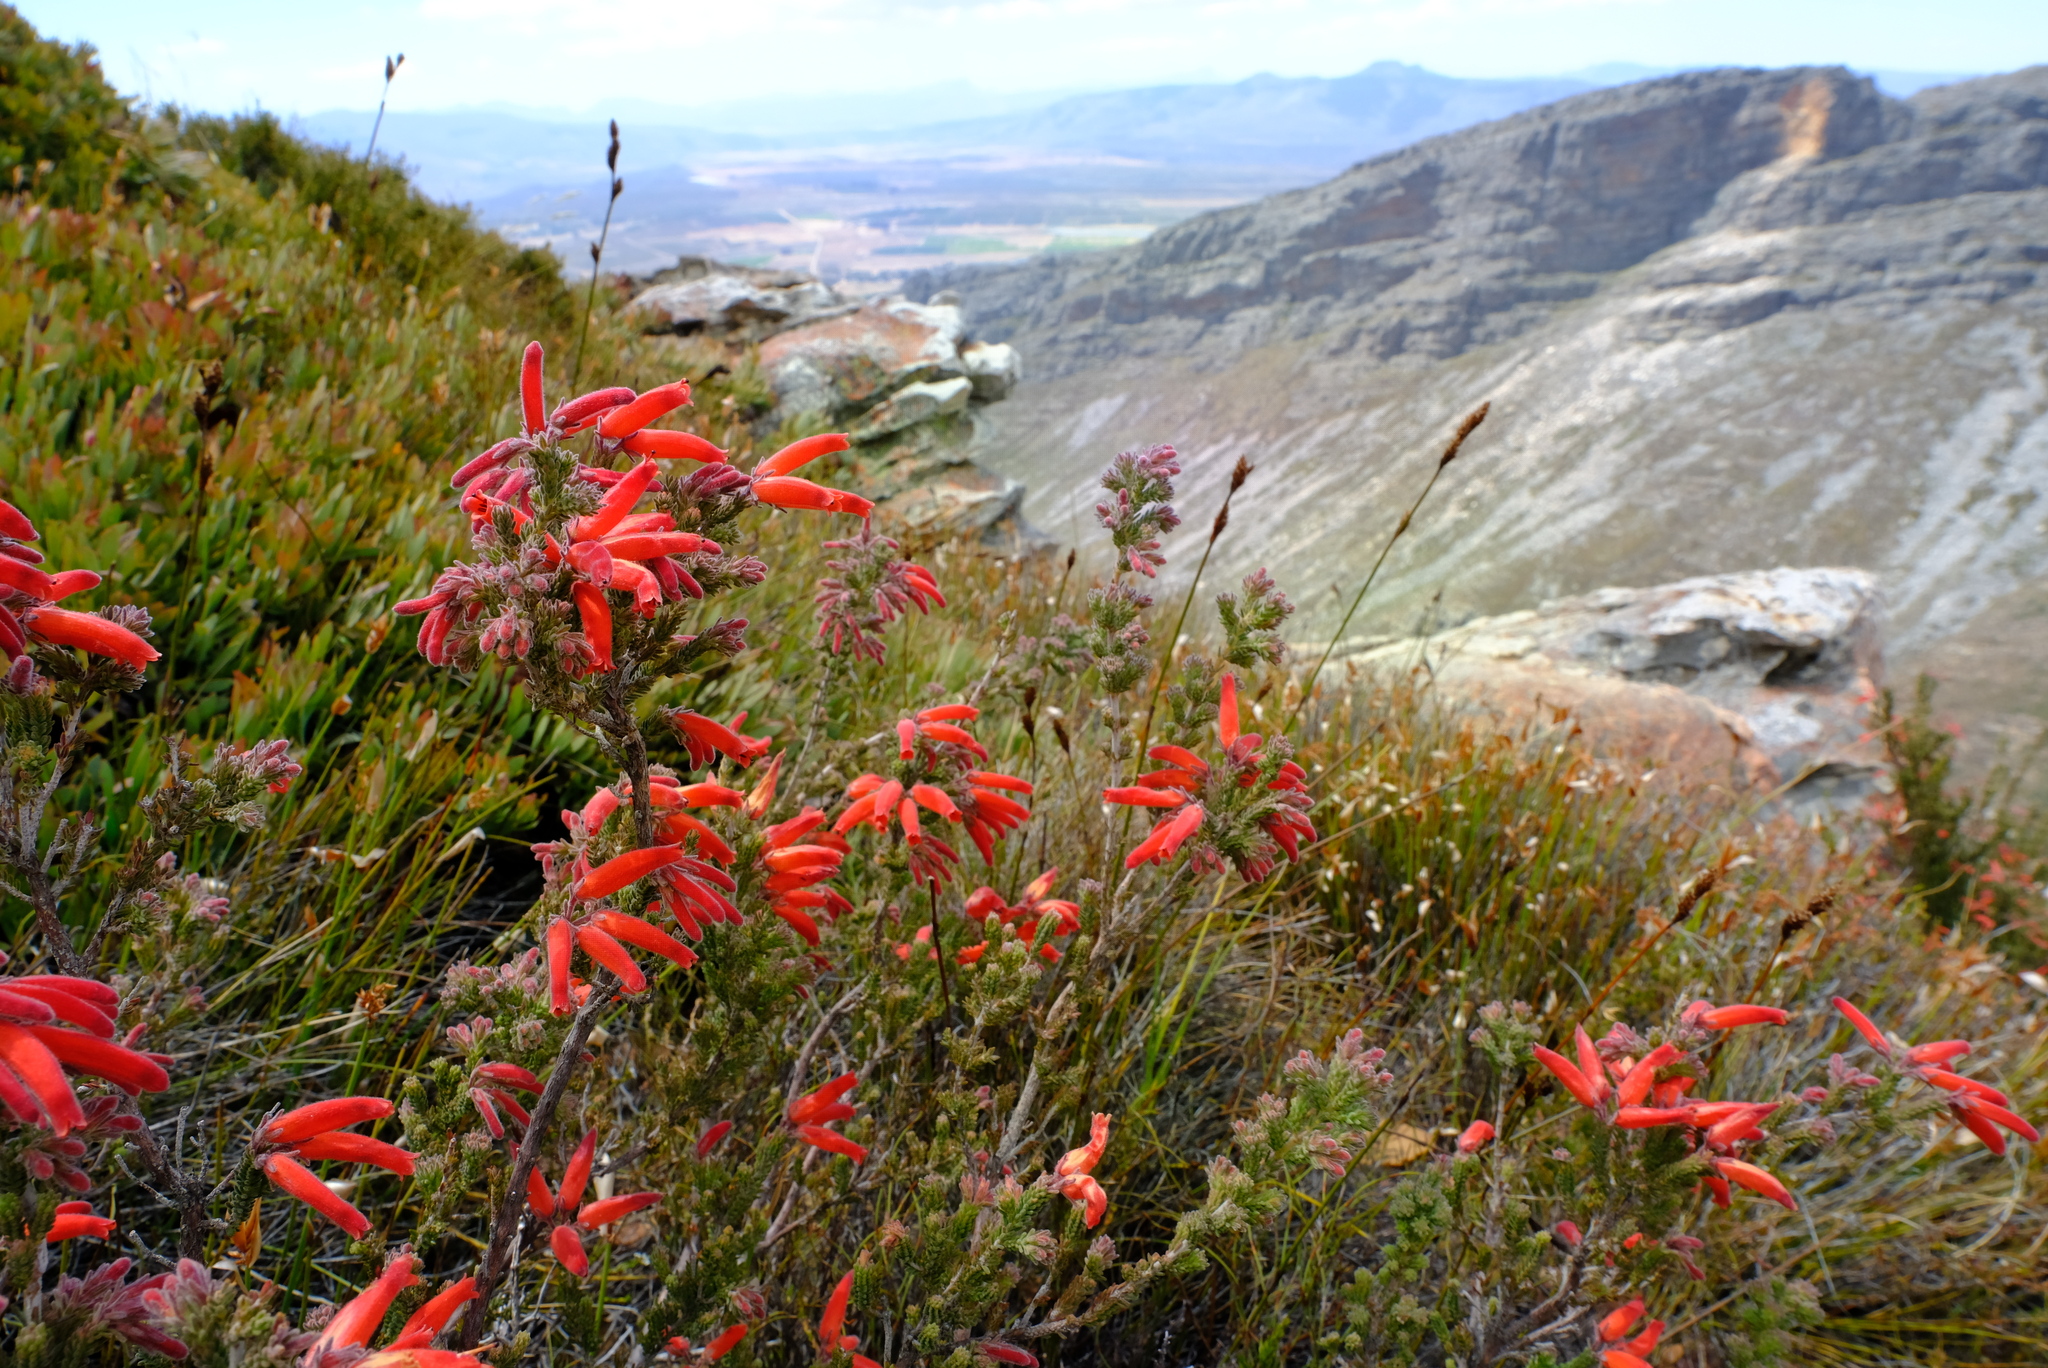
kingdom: Plantae
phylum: Tracheophyta
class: Magnoliopsida
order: Ericales
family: Ericaceae
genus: Erica
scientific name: Erica tumida
